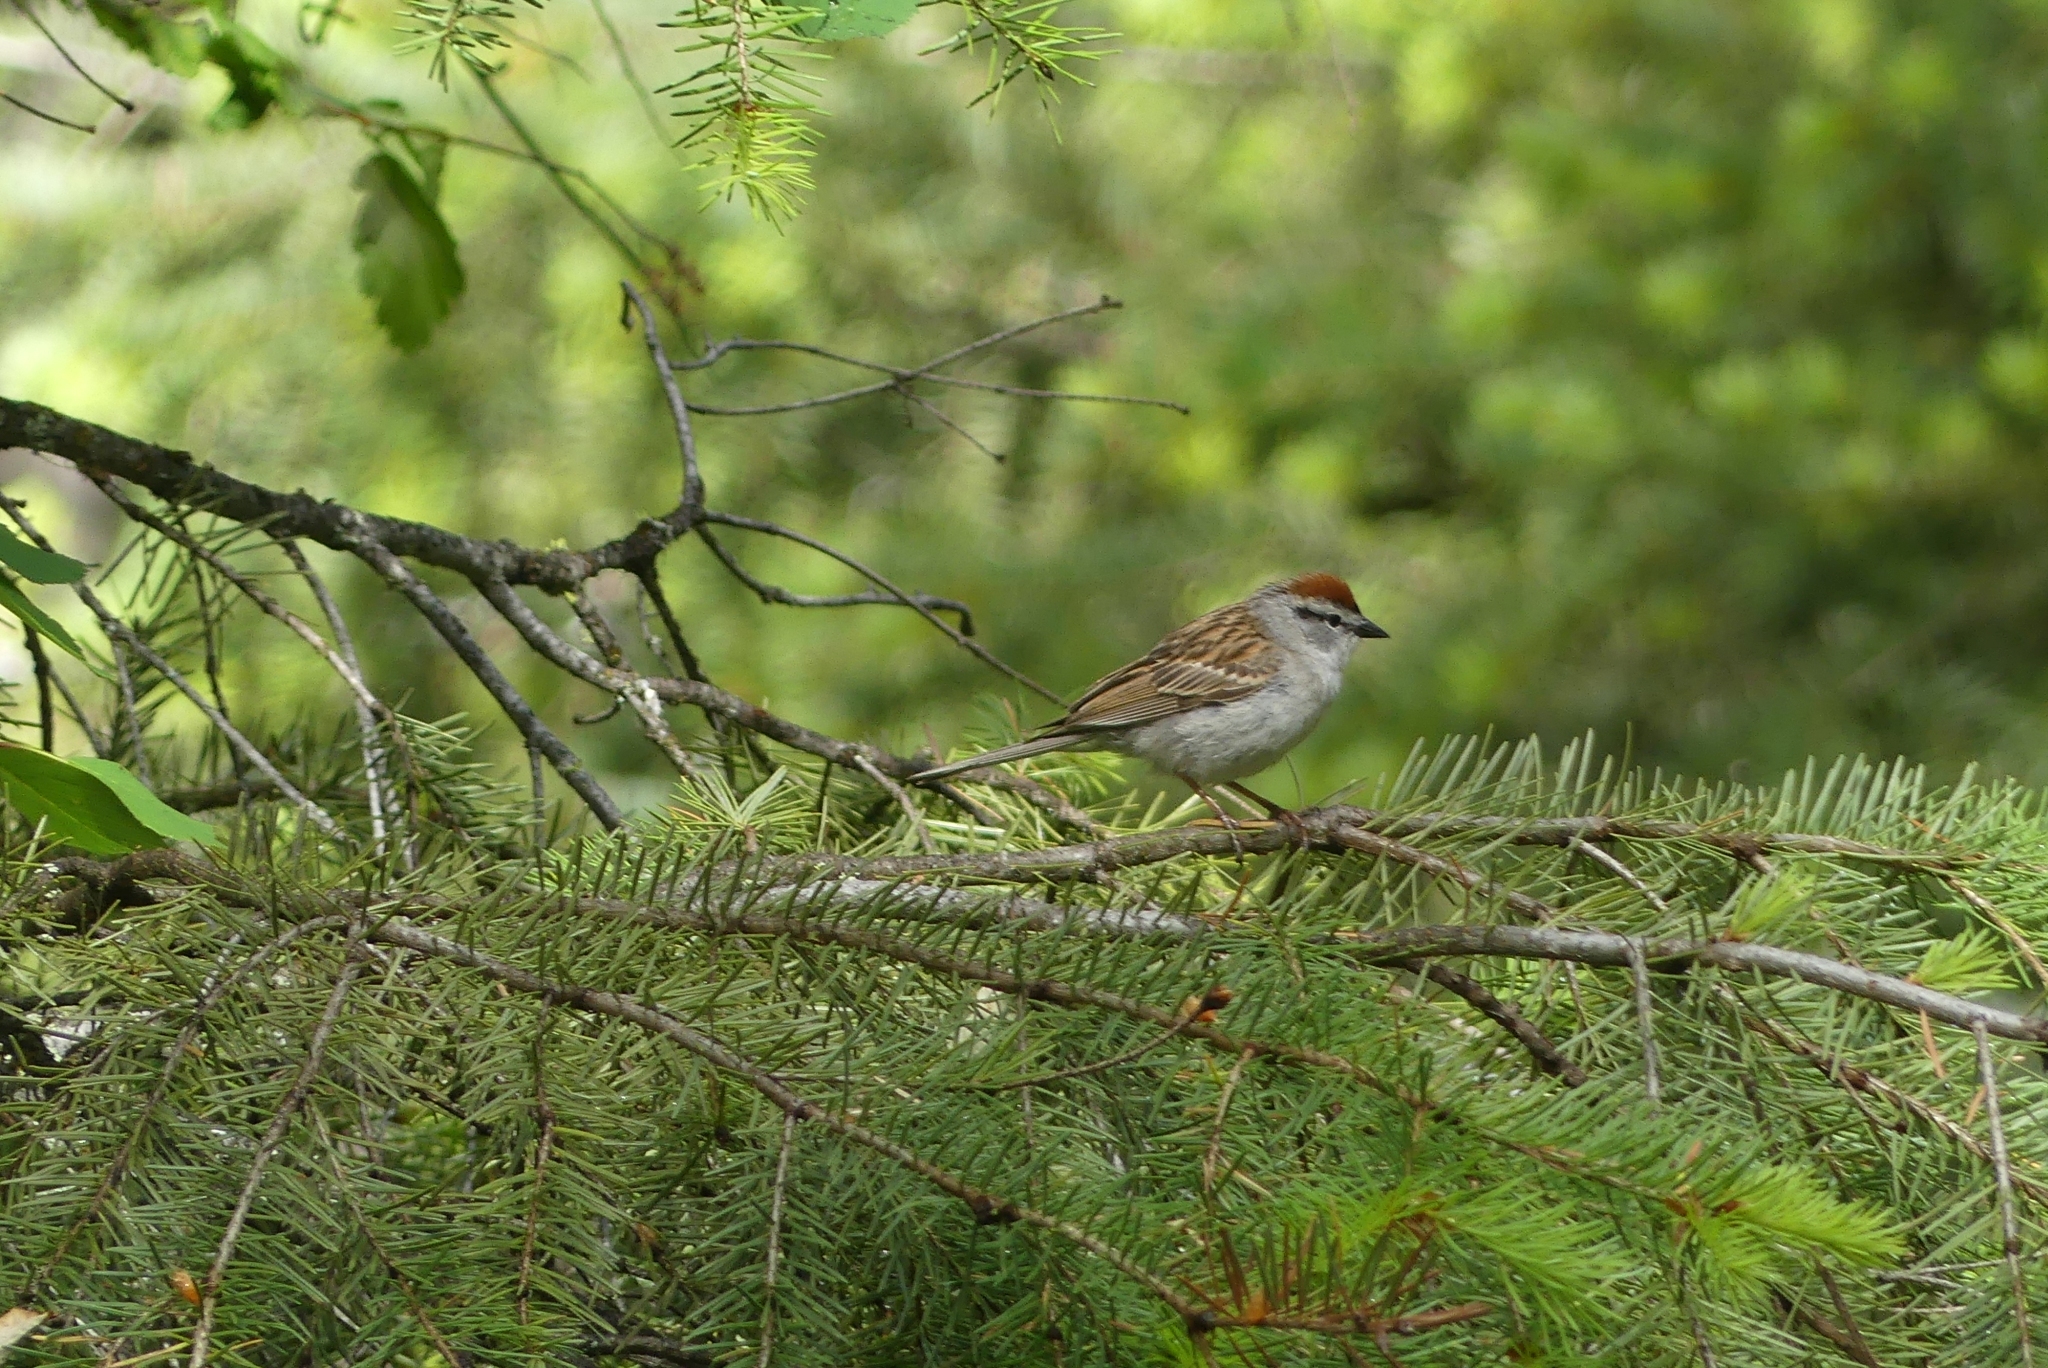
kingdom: Animalia
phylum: Chordata
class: Aves
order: Passeriformes
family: Passerellidae
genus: Spizella
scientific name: Spizella passerina
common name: Chipping sparrow
